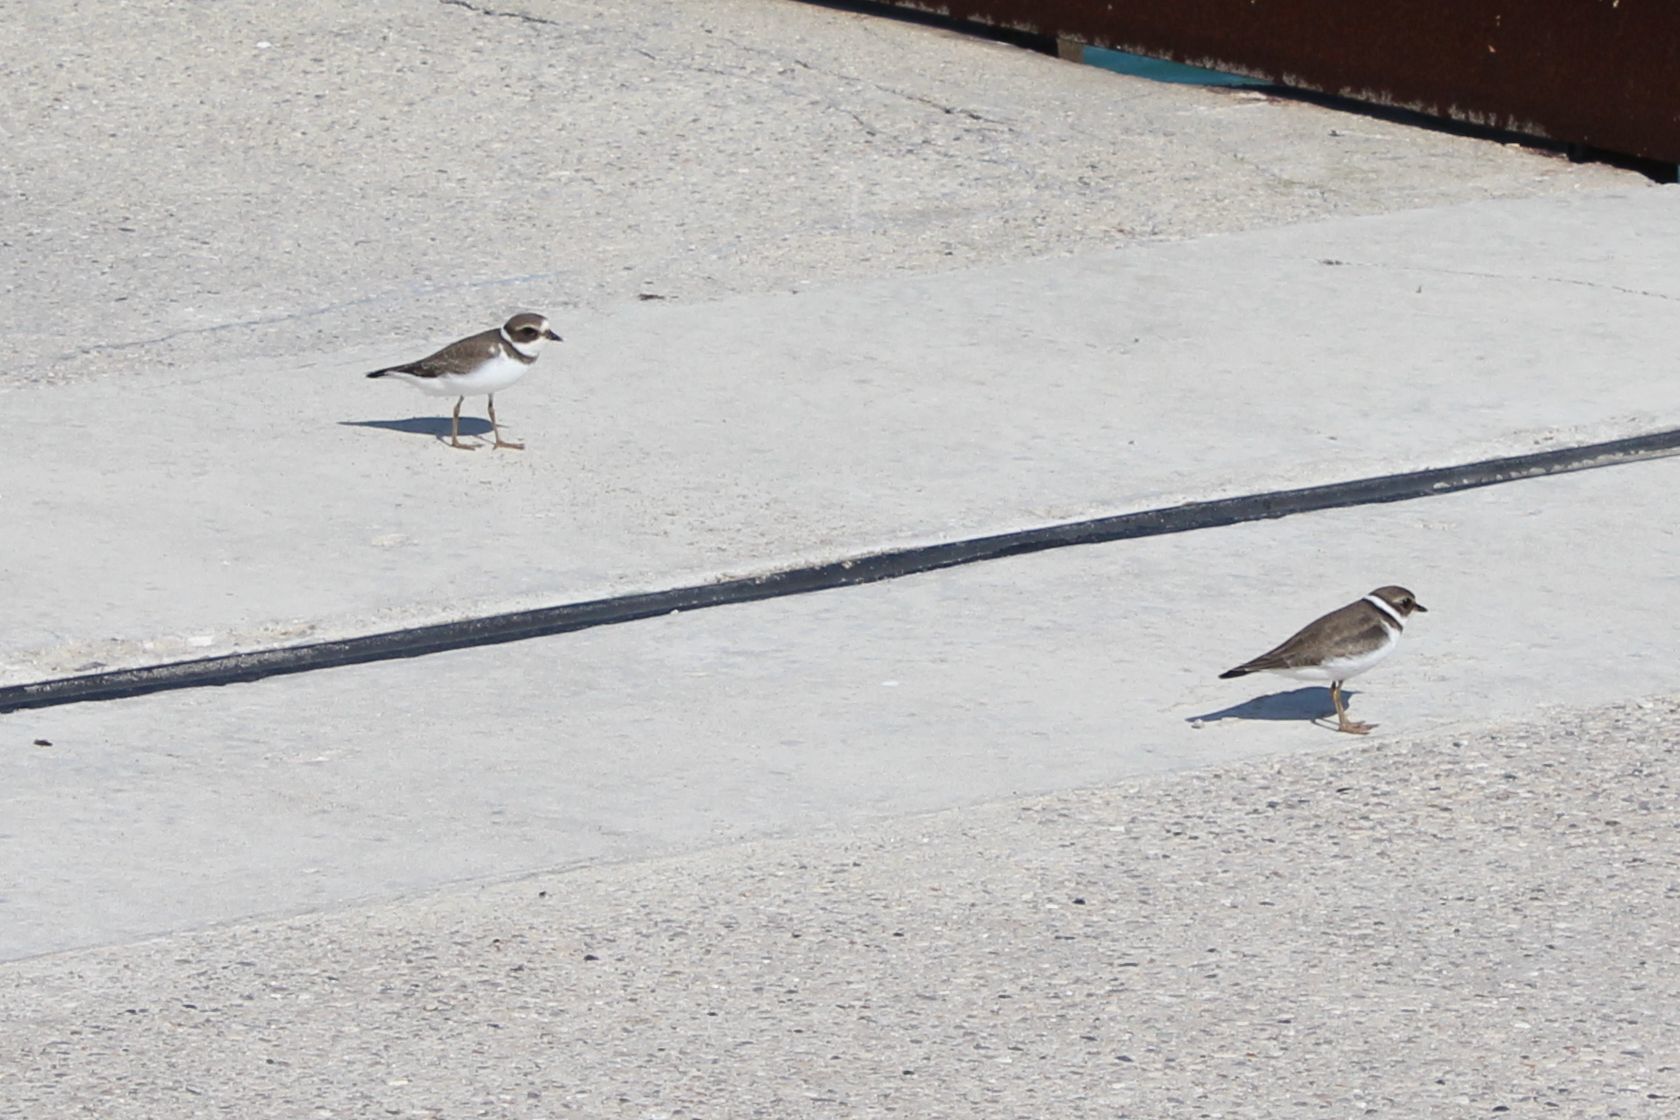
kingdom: Animalia
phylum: Chordata
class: Aves
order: Charadriiformes
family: Charadriidae
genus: Charadrius
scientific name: Charadrius semipalmatus
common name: Semipalmated plover
